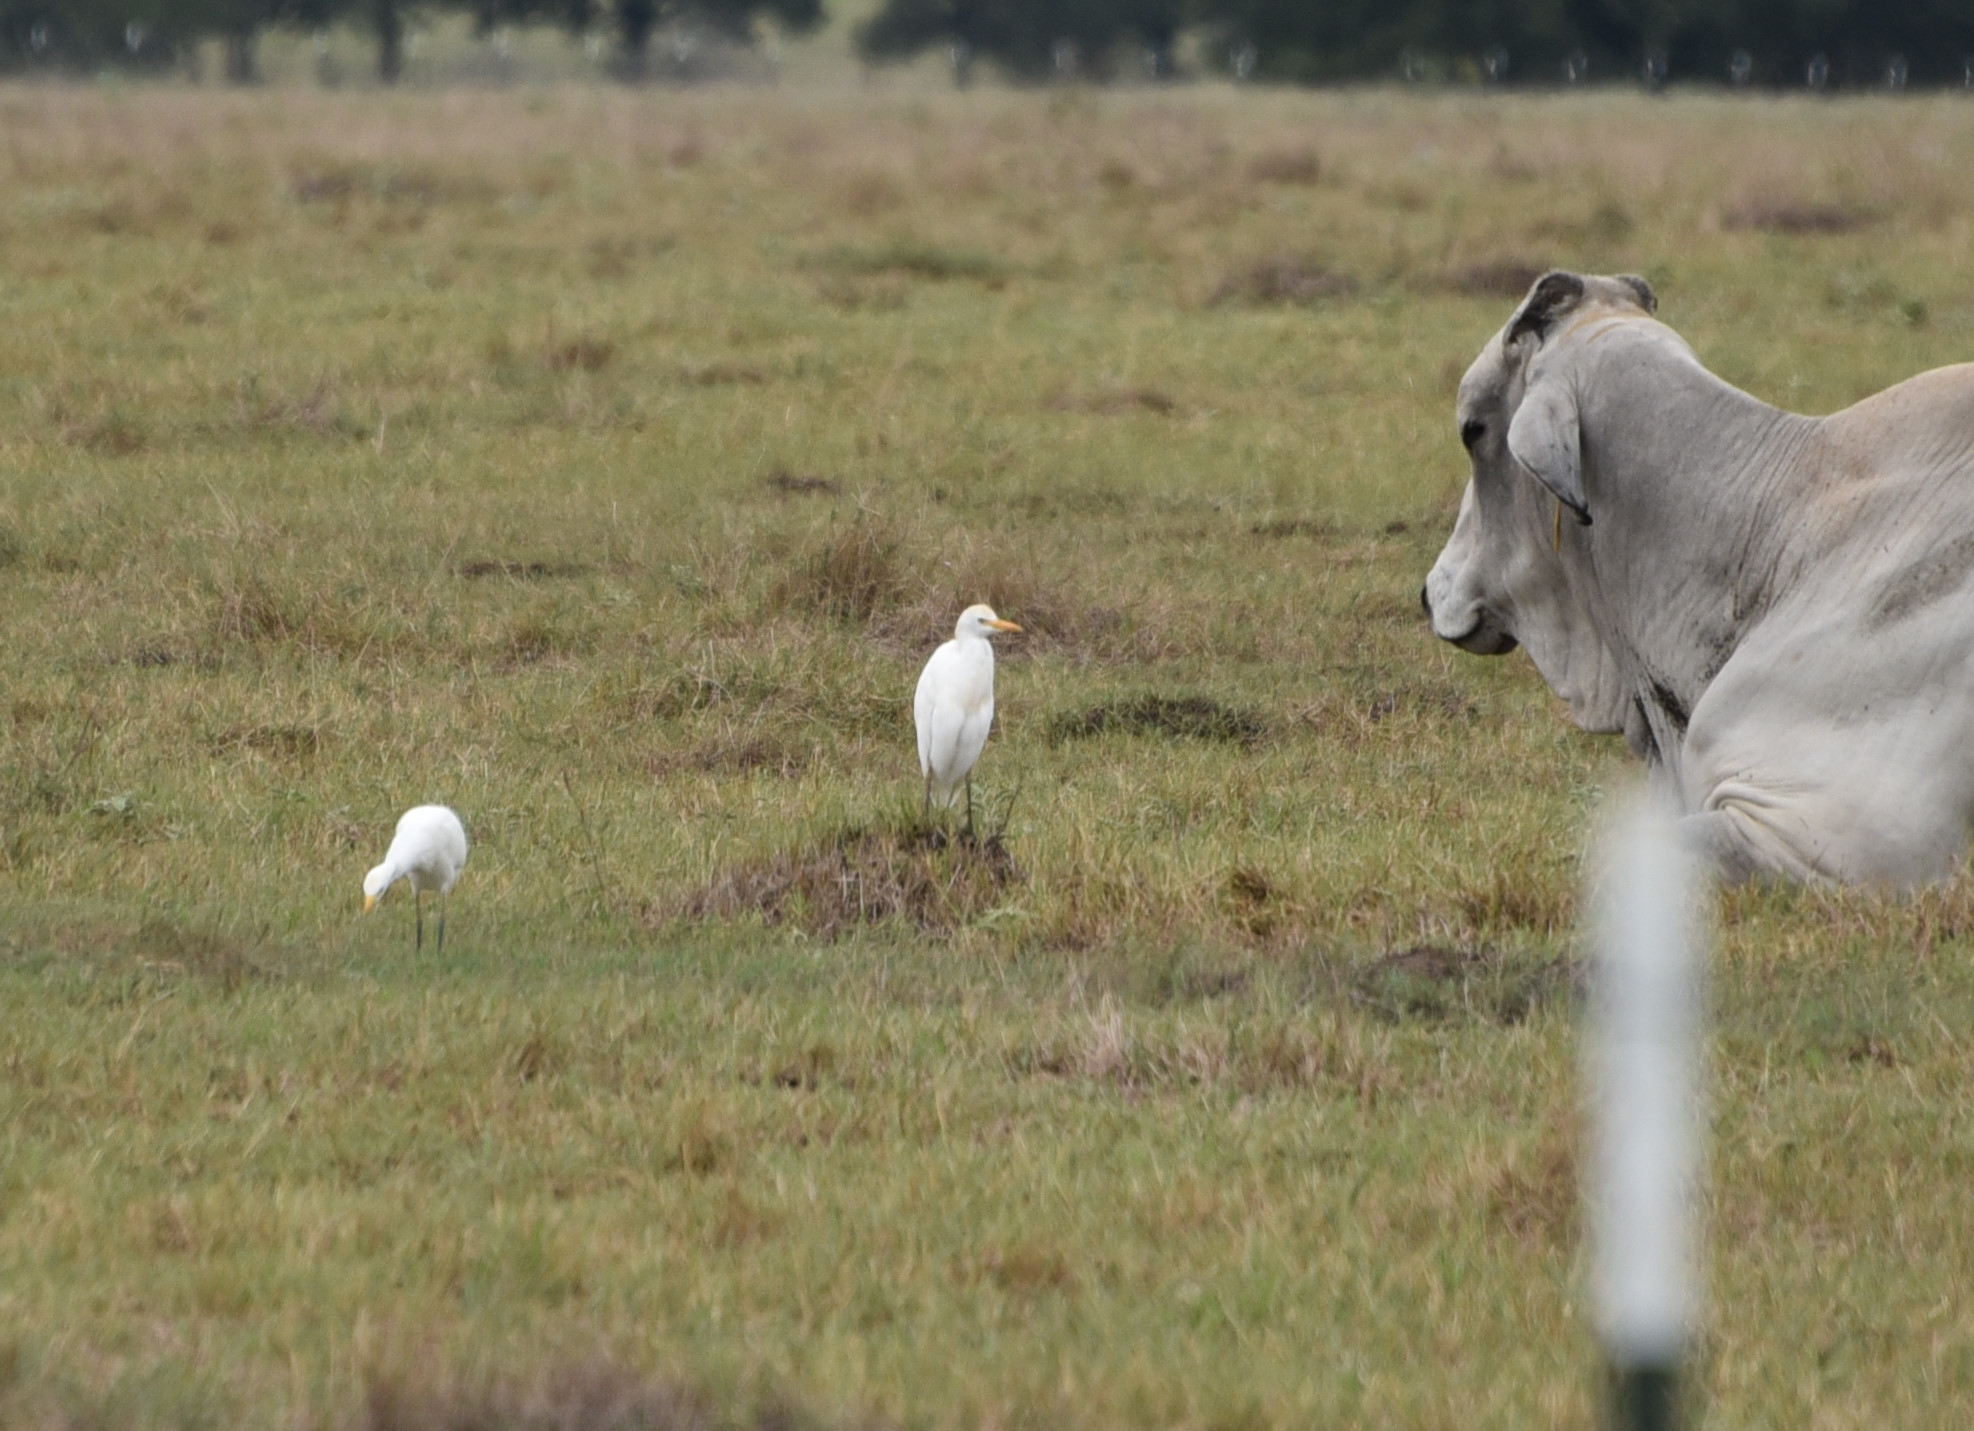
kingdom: Animalia
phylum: Chordata
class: Aves
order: Pelecaniformes
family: Ardeidae
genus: Bubulcus
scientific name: Bubulcus ibis
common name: Cattle egret
